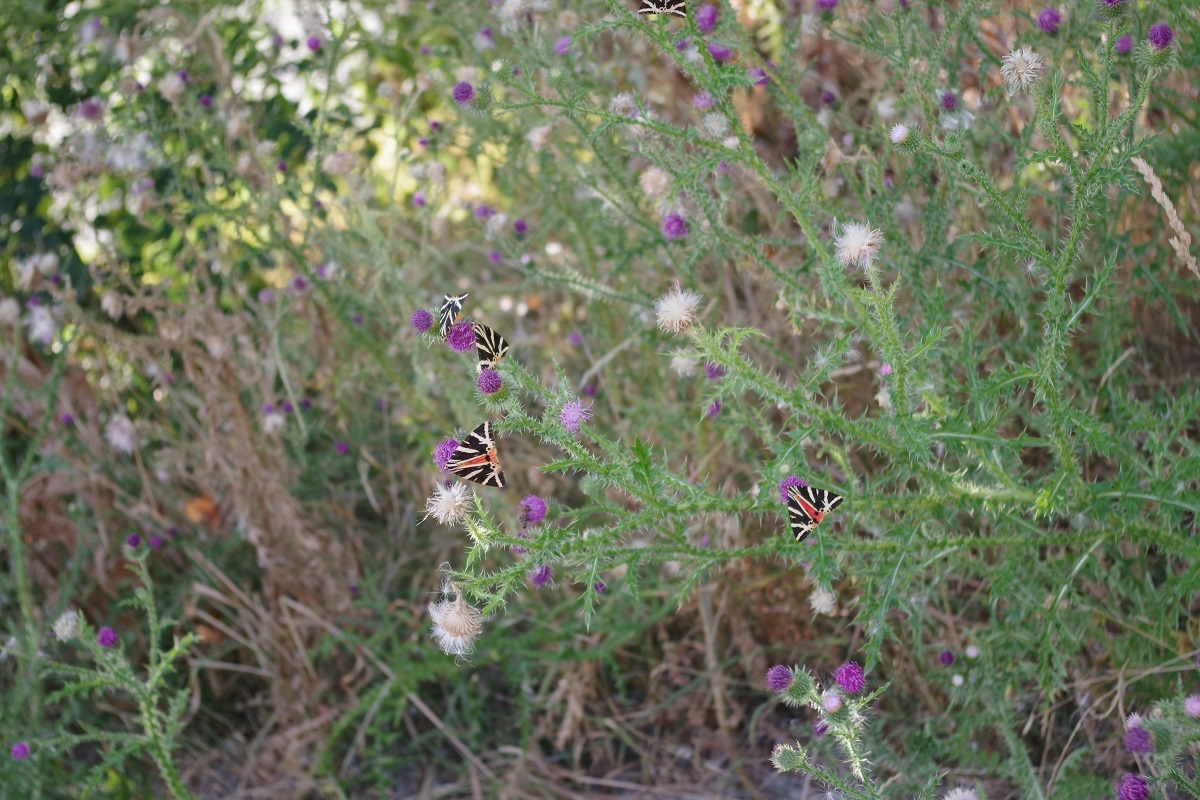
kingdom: Animalia
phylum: Arthropoda
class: Insecta
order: Lepidoptera
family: Erebidae
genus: Euplagia
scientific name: Euplagia quadripunctaria
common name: Jersey tiger
